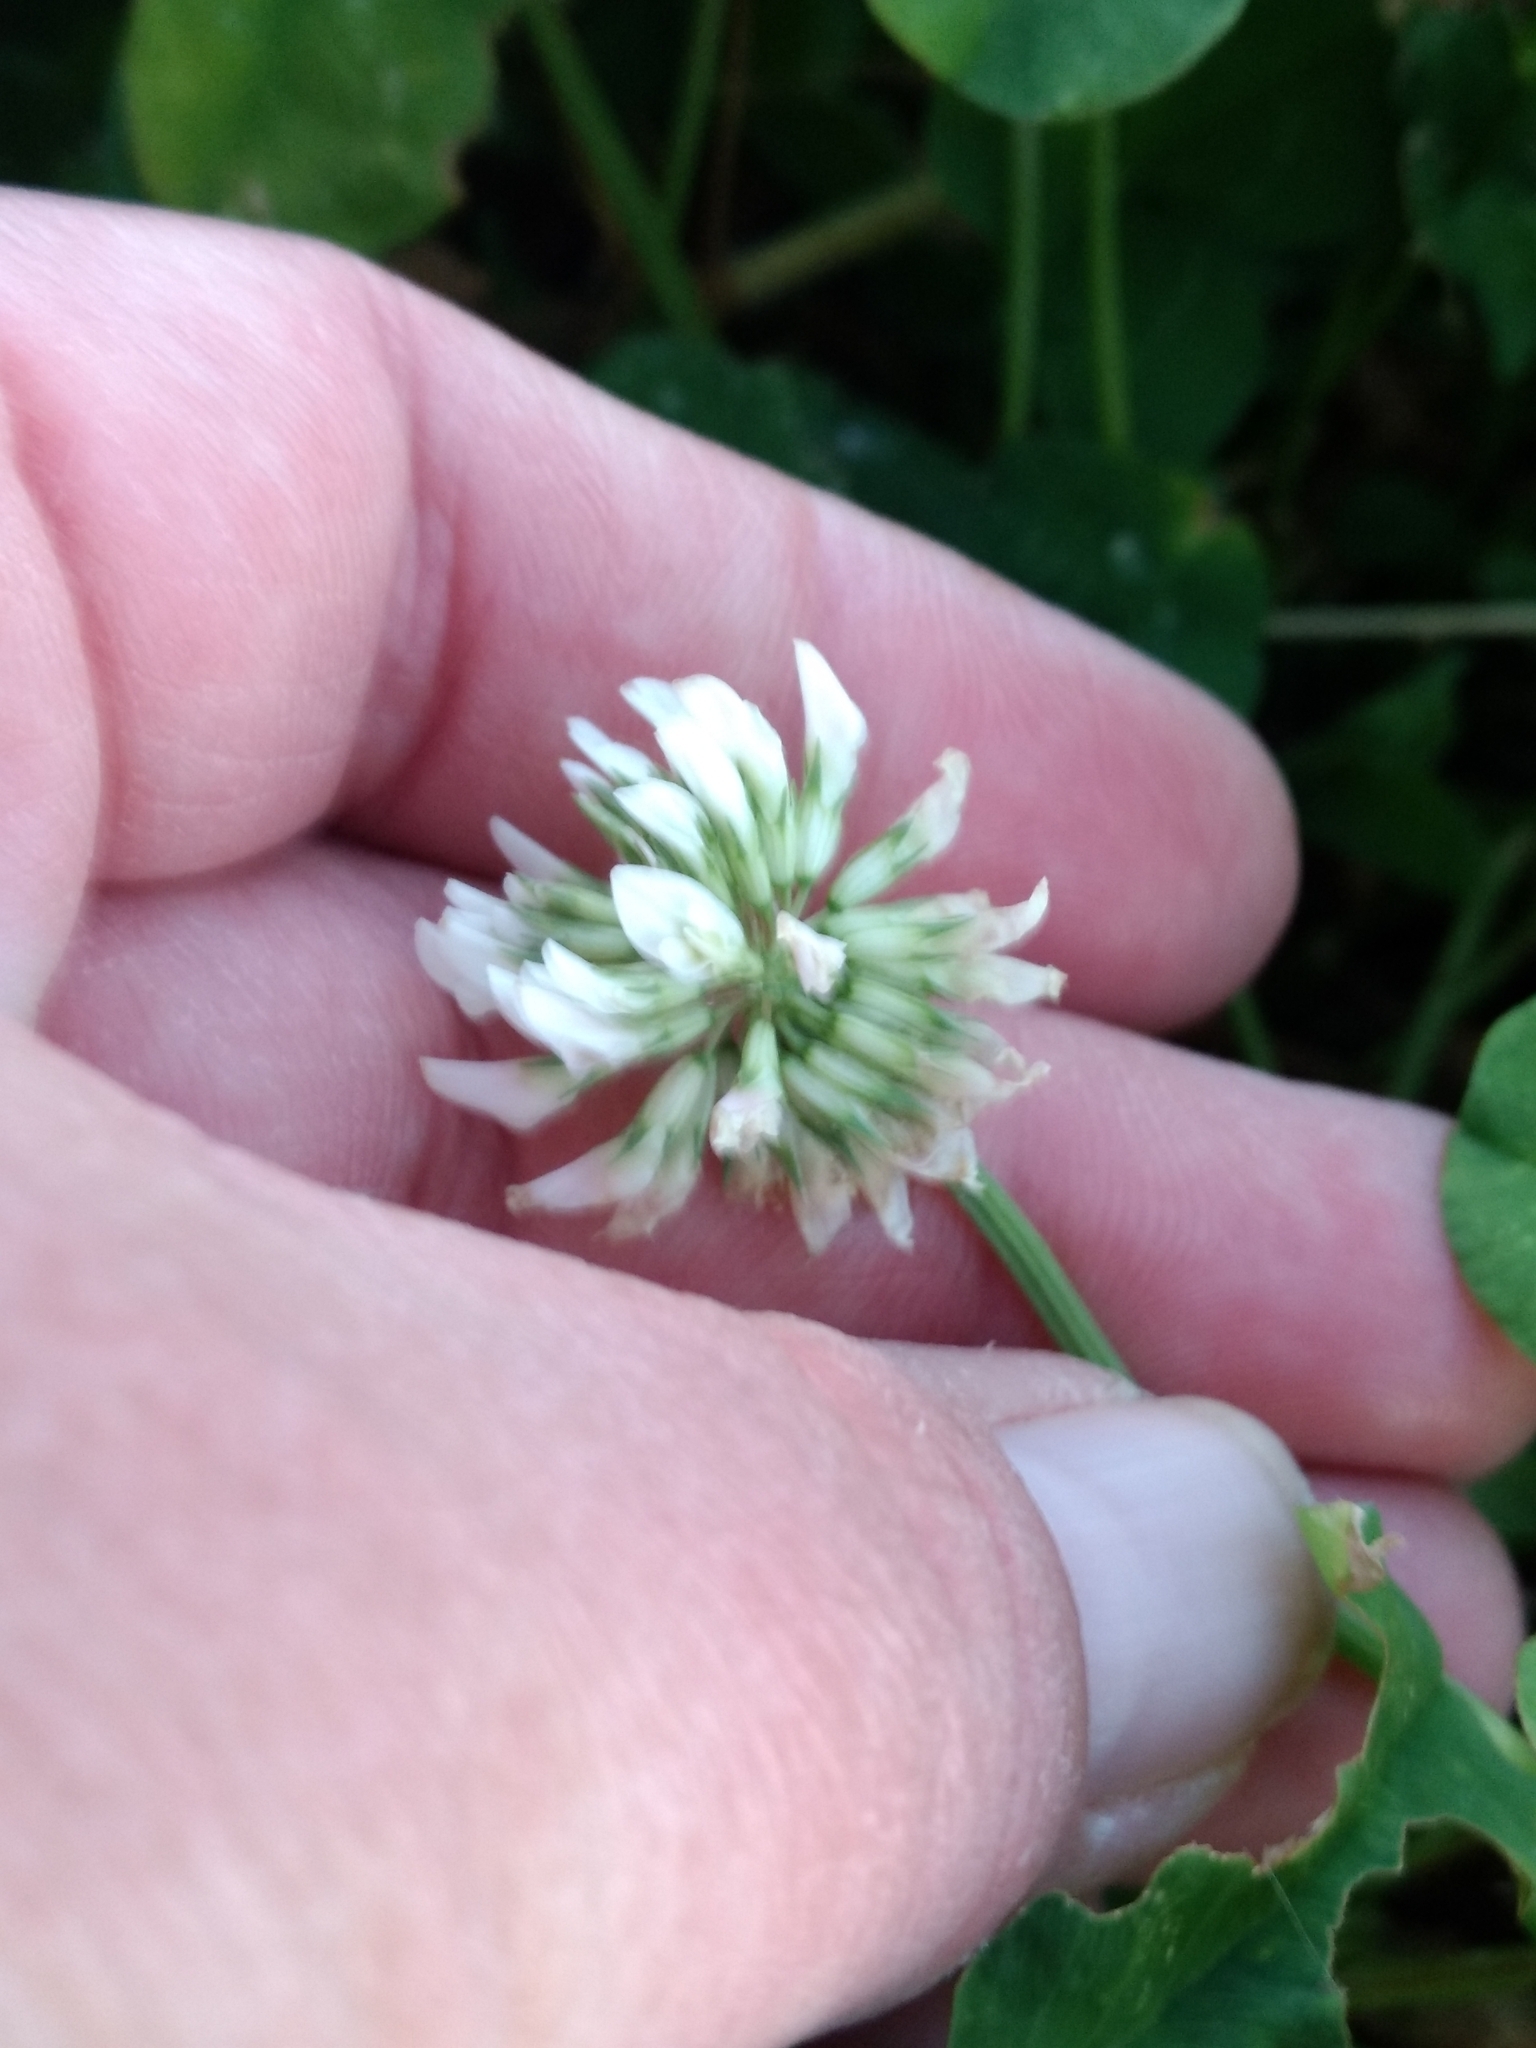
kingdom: Plantae
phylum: Tracheophyta
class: Magnoliopsida
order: Fabales
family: Fabaceae
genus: Trifolium
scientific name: Trifolium repens
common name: White clover
